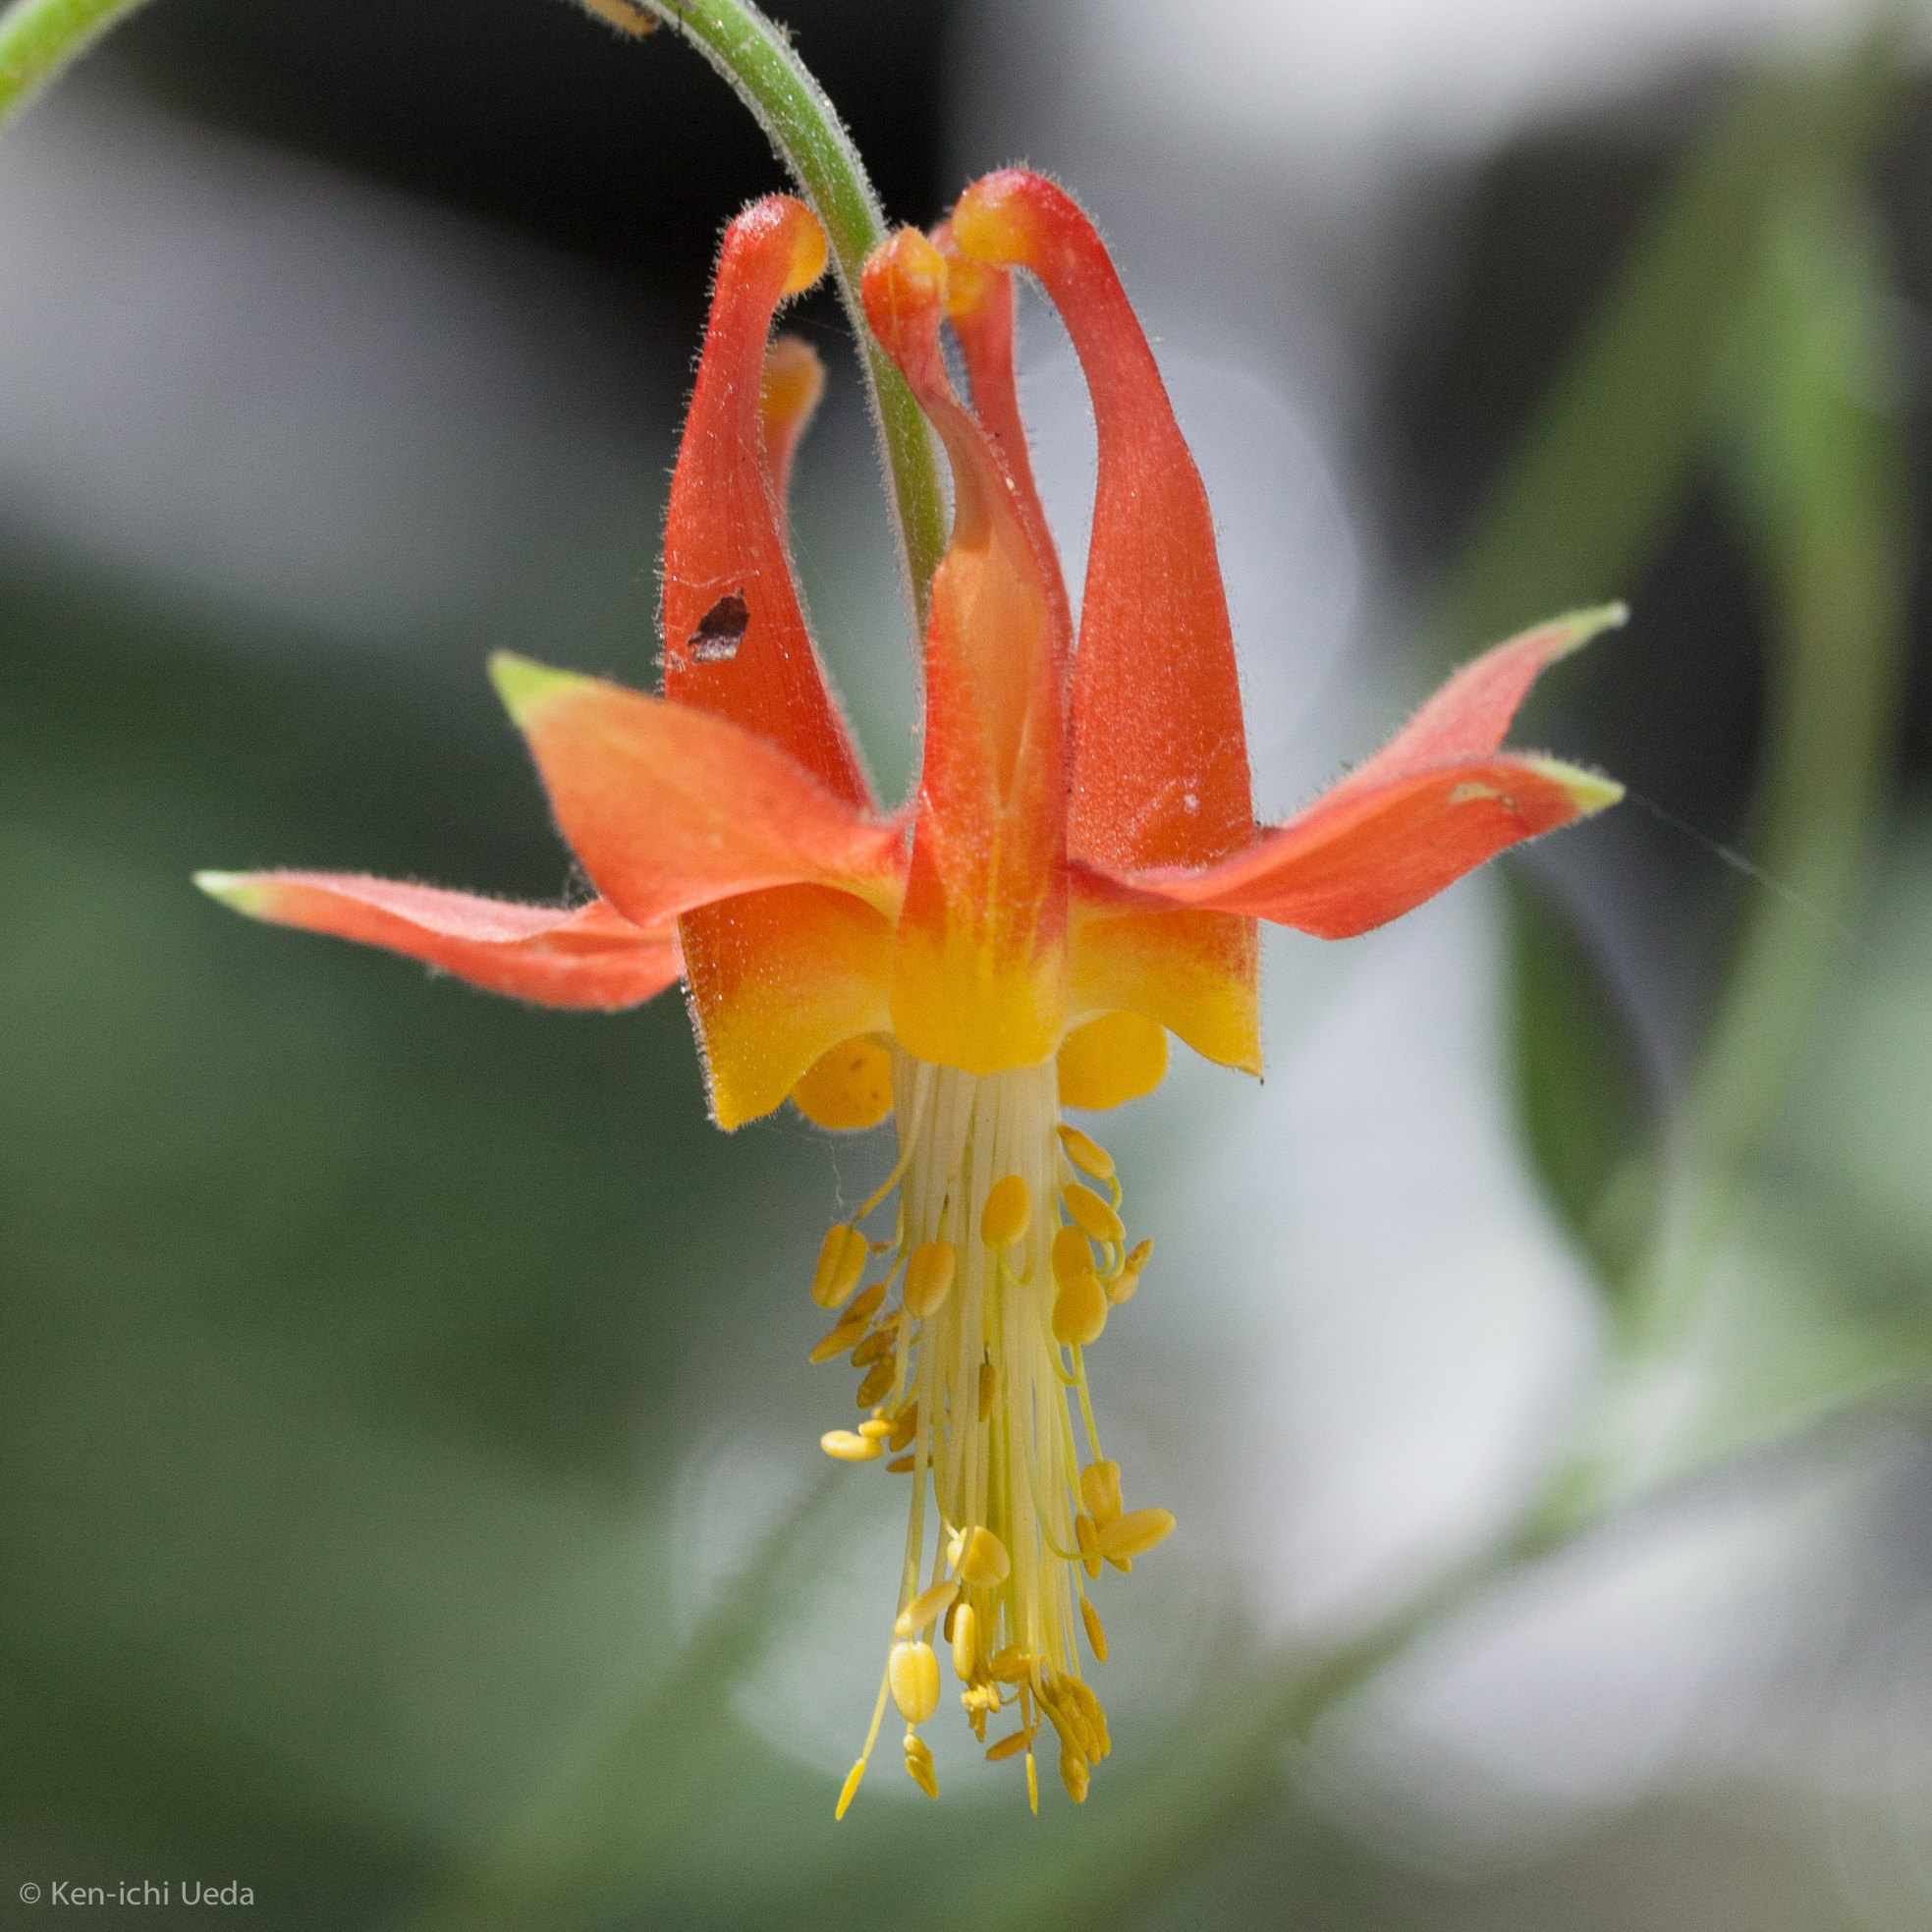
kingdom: Plantae
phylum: Tracheophyta
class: Magnoliopsida
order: Ranunculales
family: Ranunculaceae
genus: Aquilegia
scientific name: Aquilegia formosa
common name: Sitka columbine
